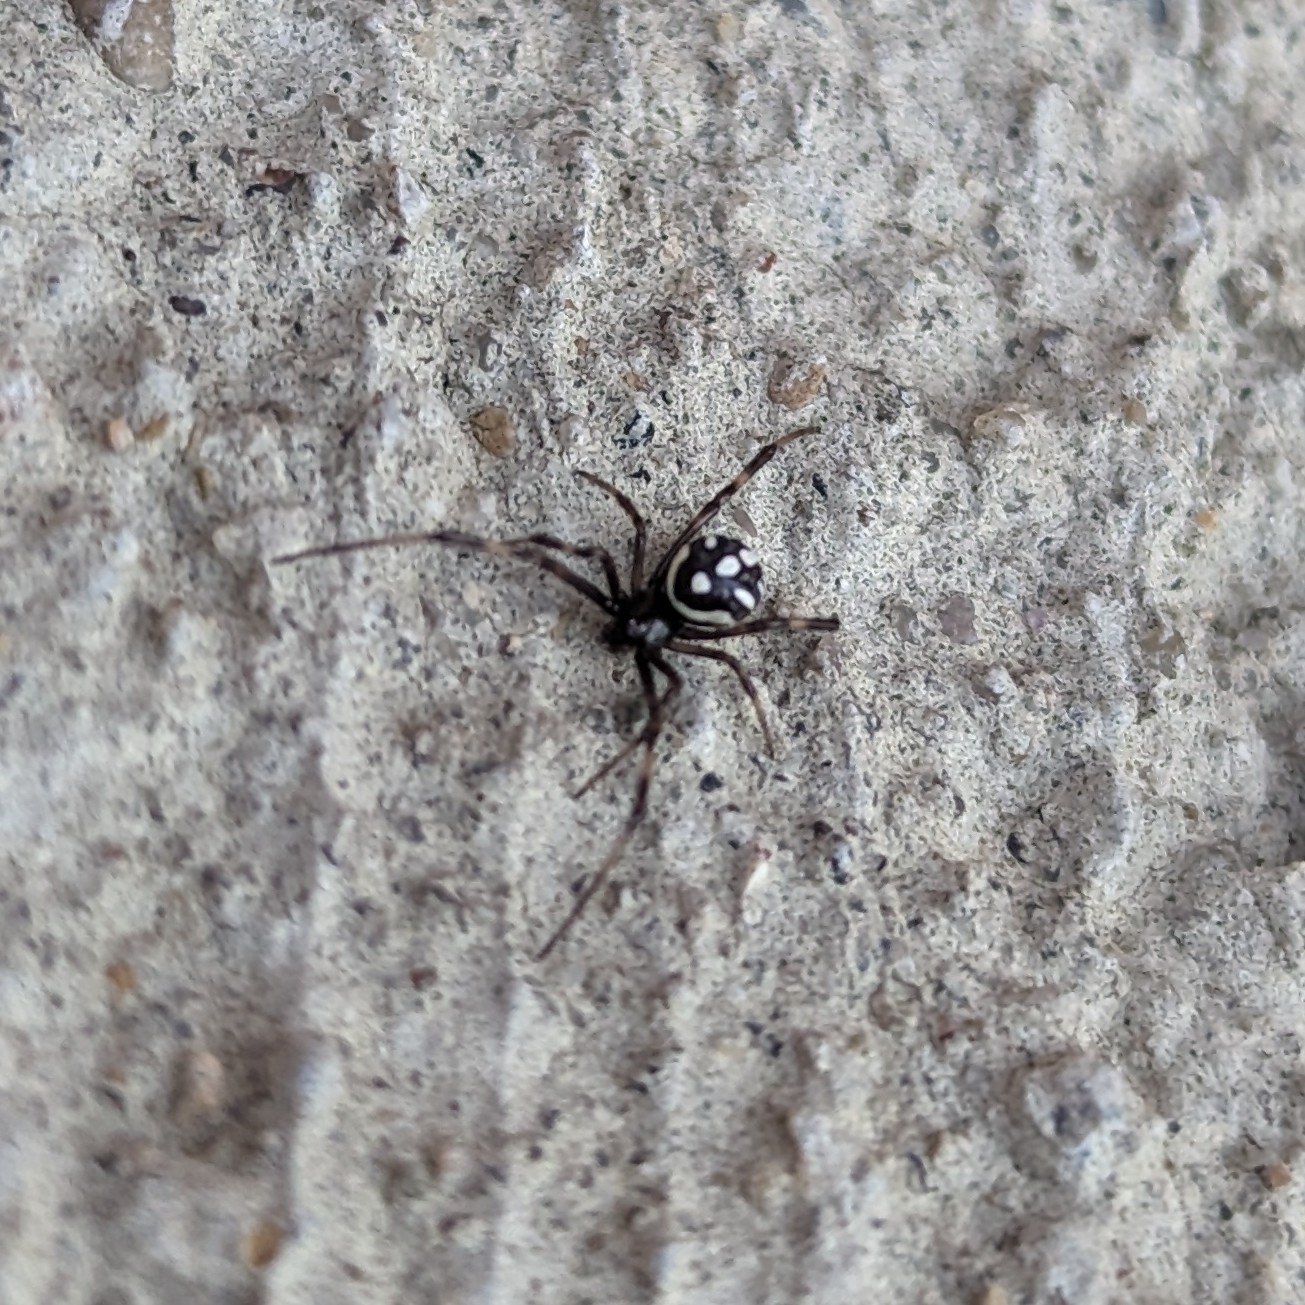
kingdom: Animalia
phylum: Arthropoda
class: Arachnida
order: Araneae
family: Theridiidae
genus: Latrodectus
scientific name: Latrodectus mactans
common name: Cobweb spiders
